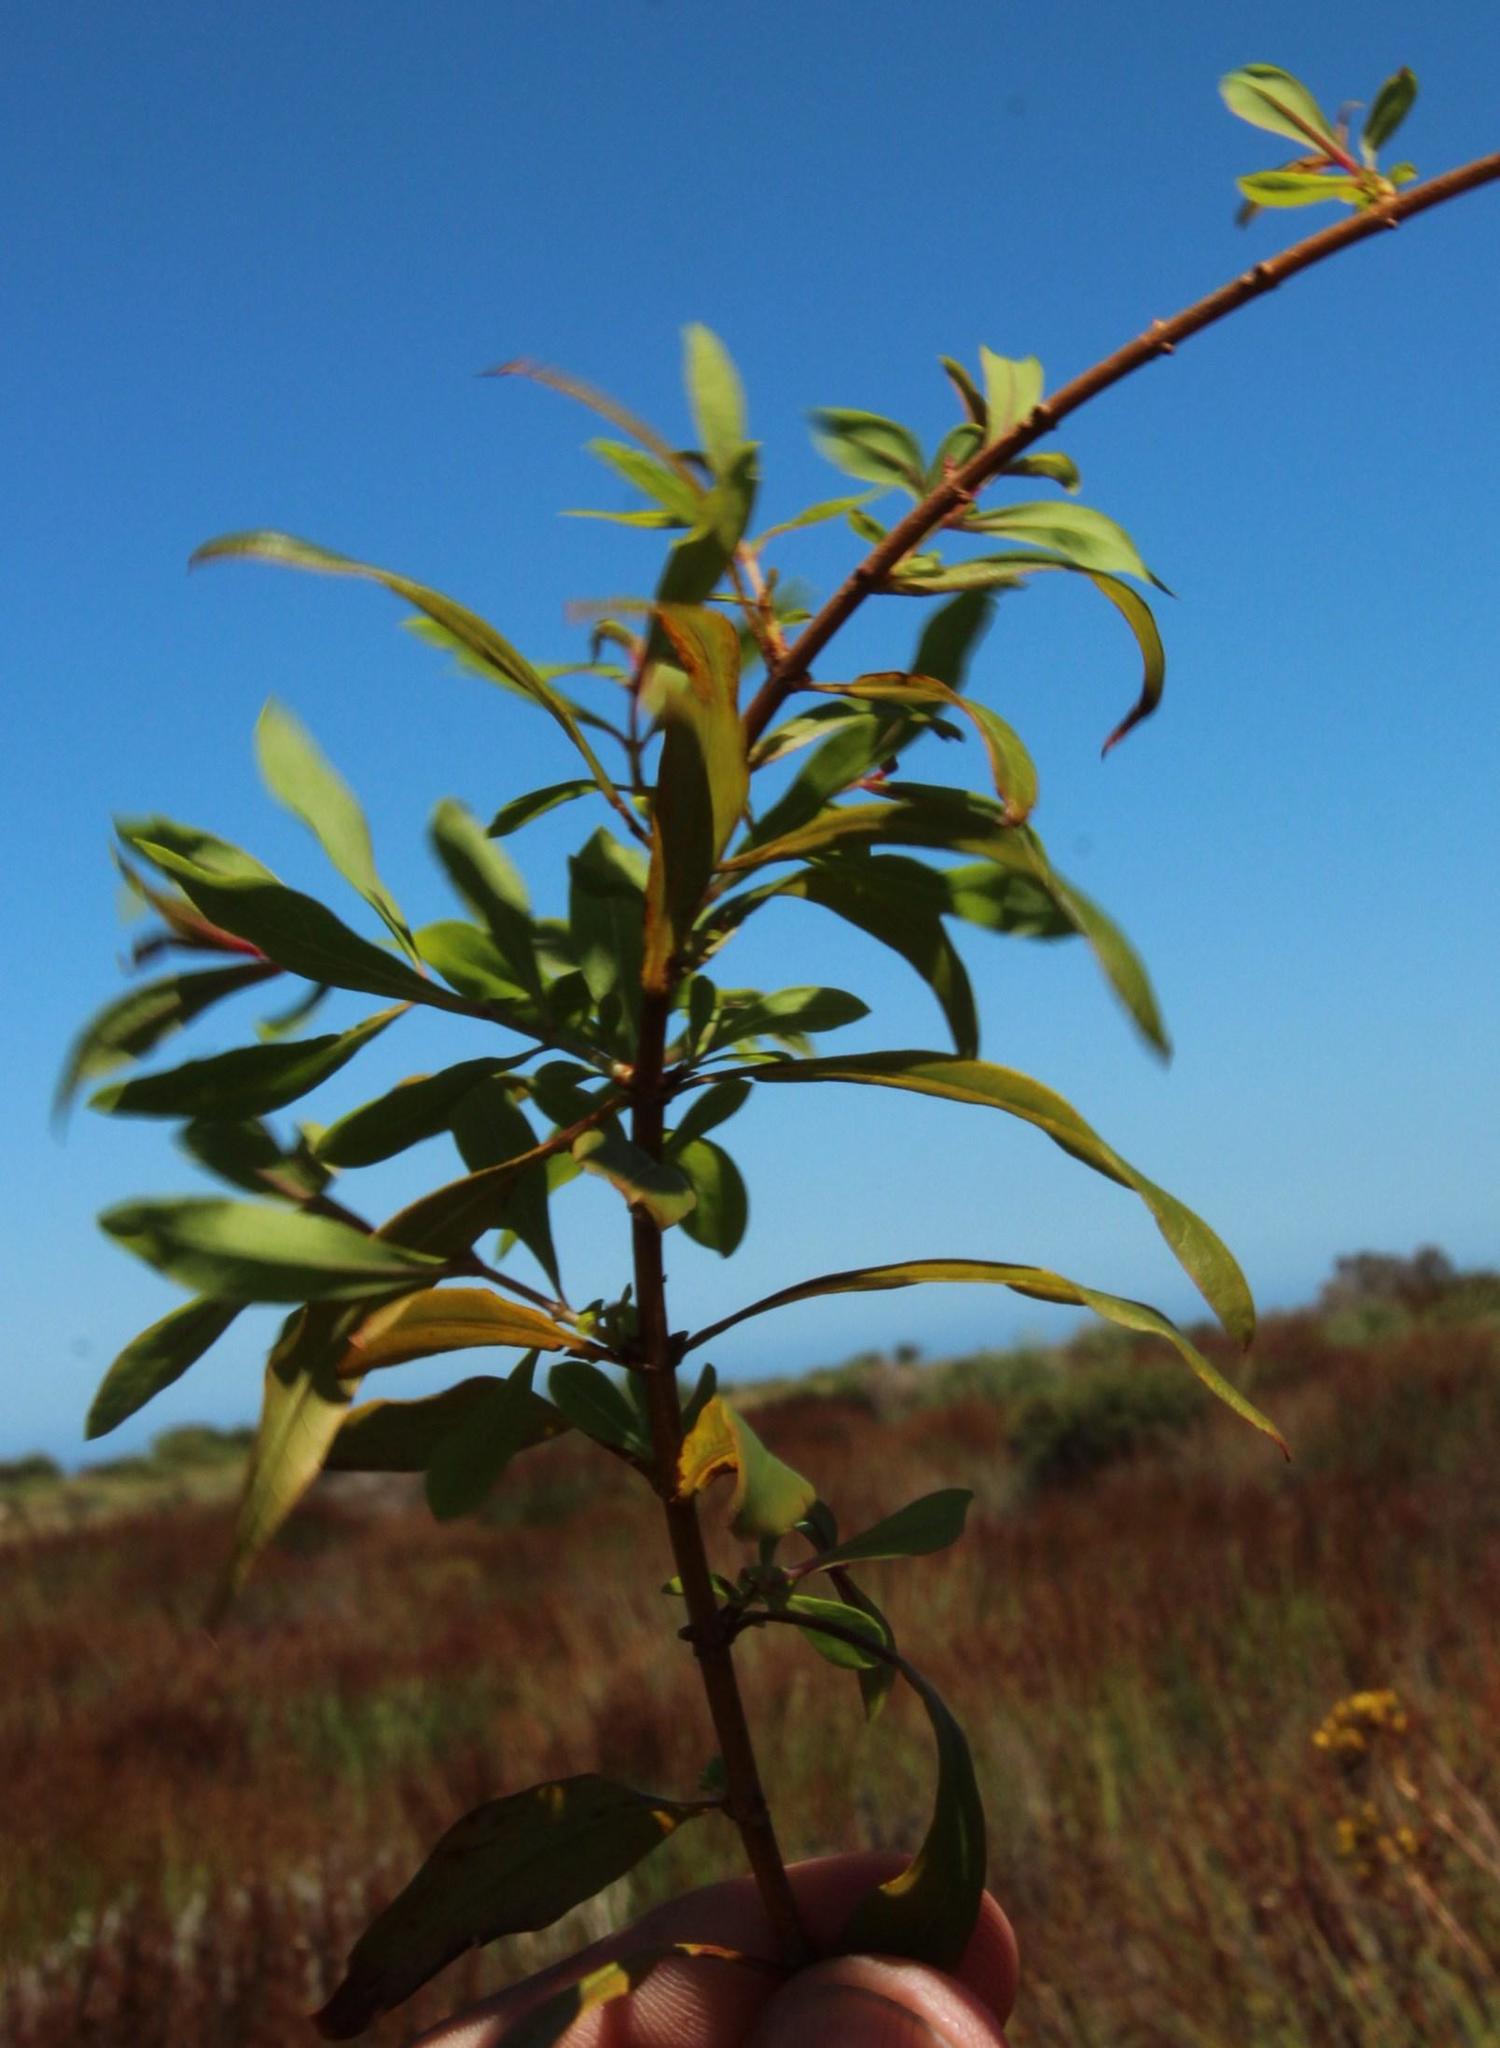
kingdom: Plantae
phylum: Tracheophyta
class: Magnoliopsida
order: Malpighiales
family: Hypericaceae
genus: Hypericum
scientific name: Hypericum canariense
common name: Canary island st. johnswort
